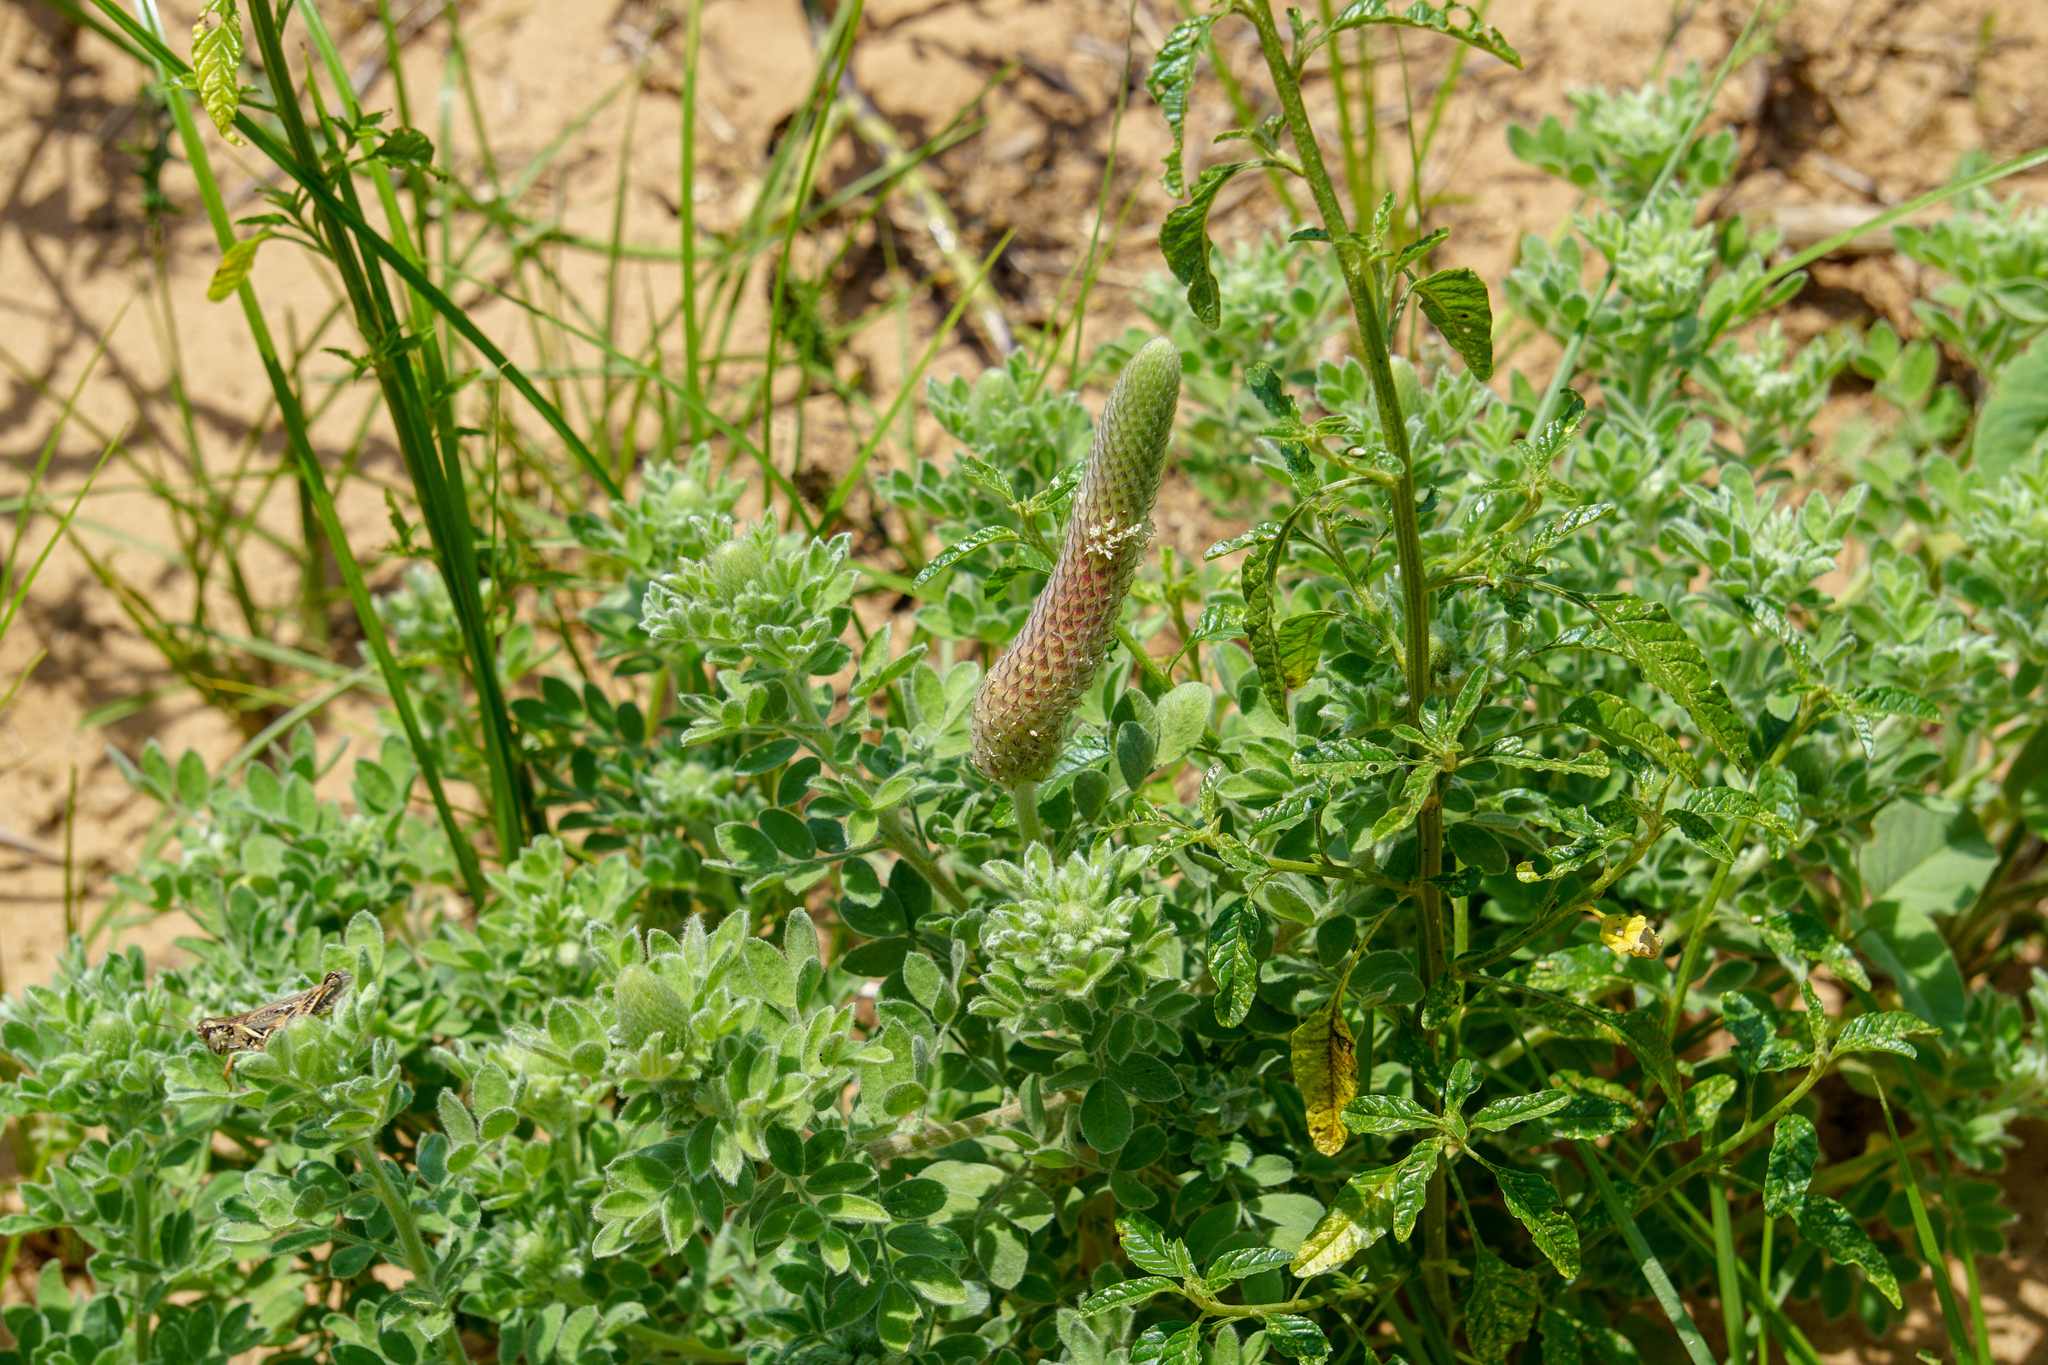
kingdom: Plantae
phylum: Tracheophyta
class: Magnoliopsida
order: Fabales
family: Fabaceae
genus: Dalea
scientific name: Dalea obovata
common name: Pussyfoot
